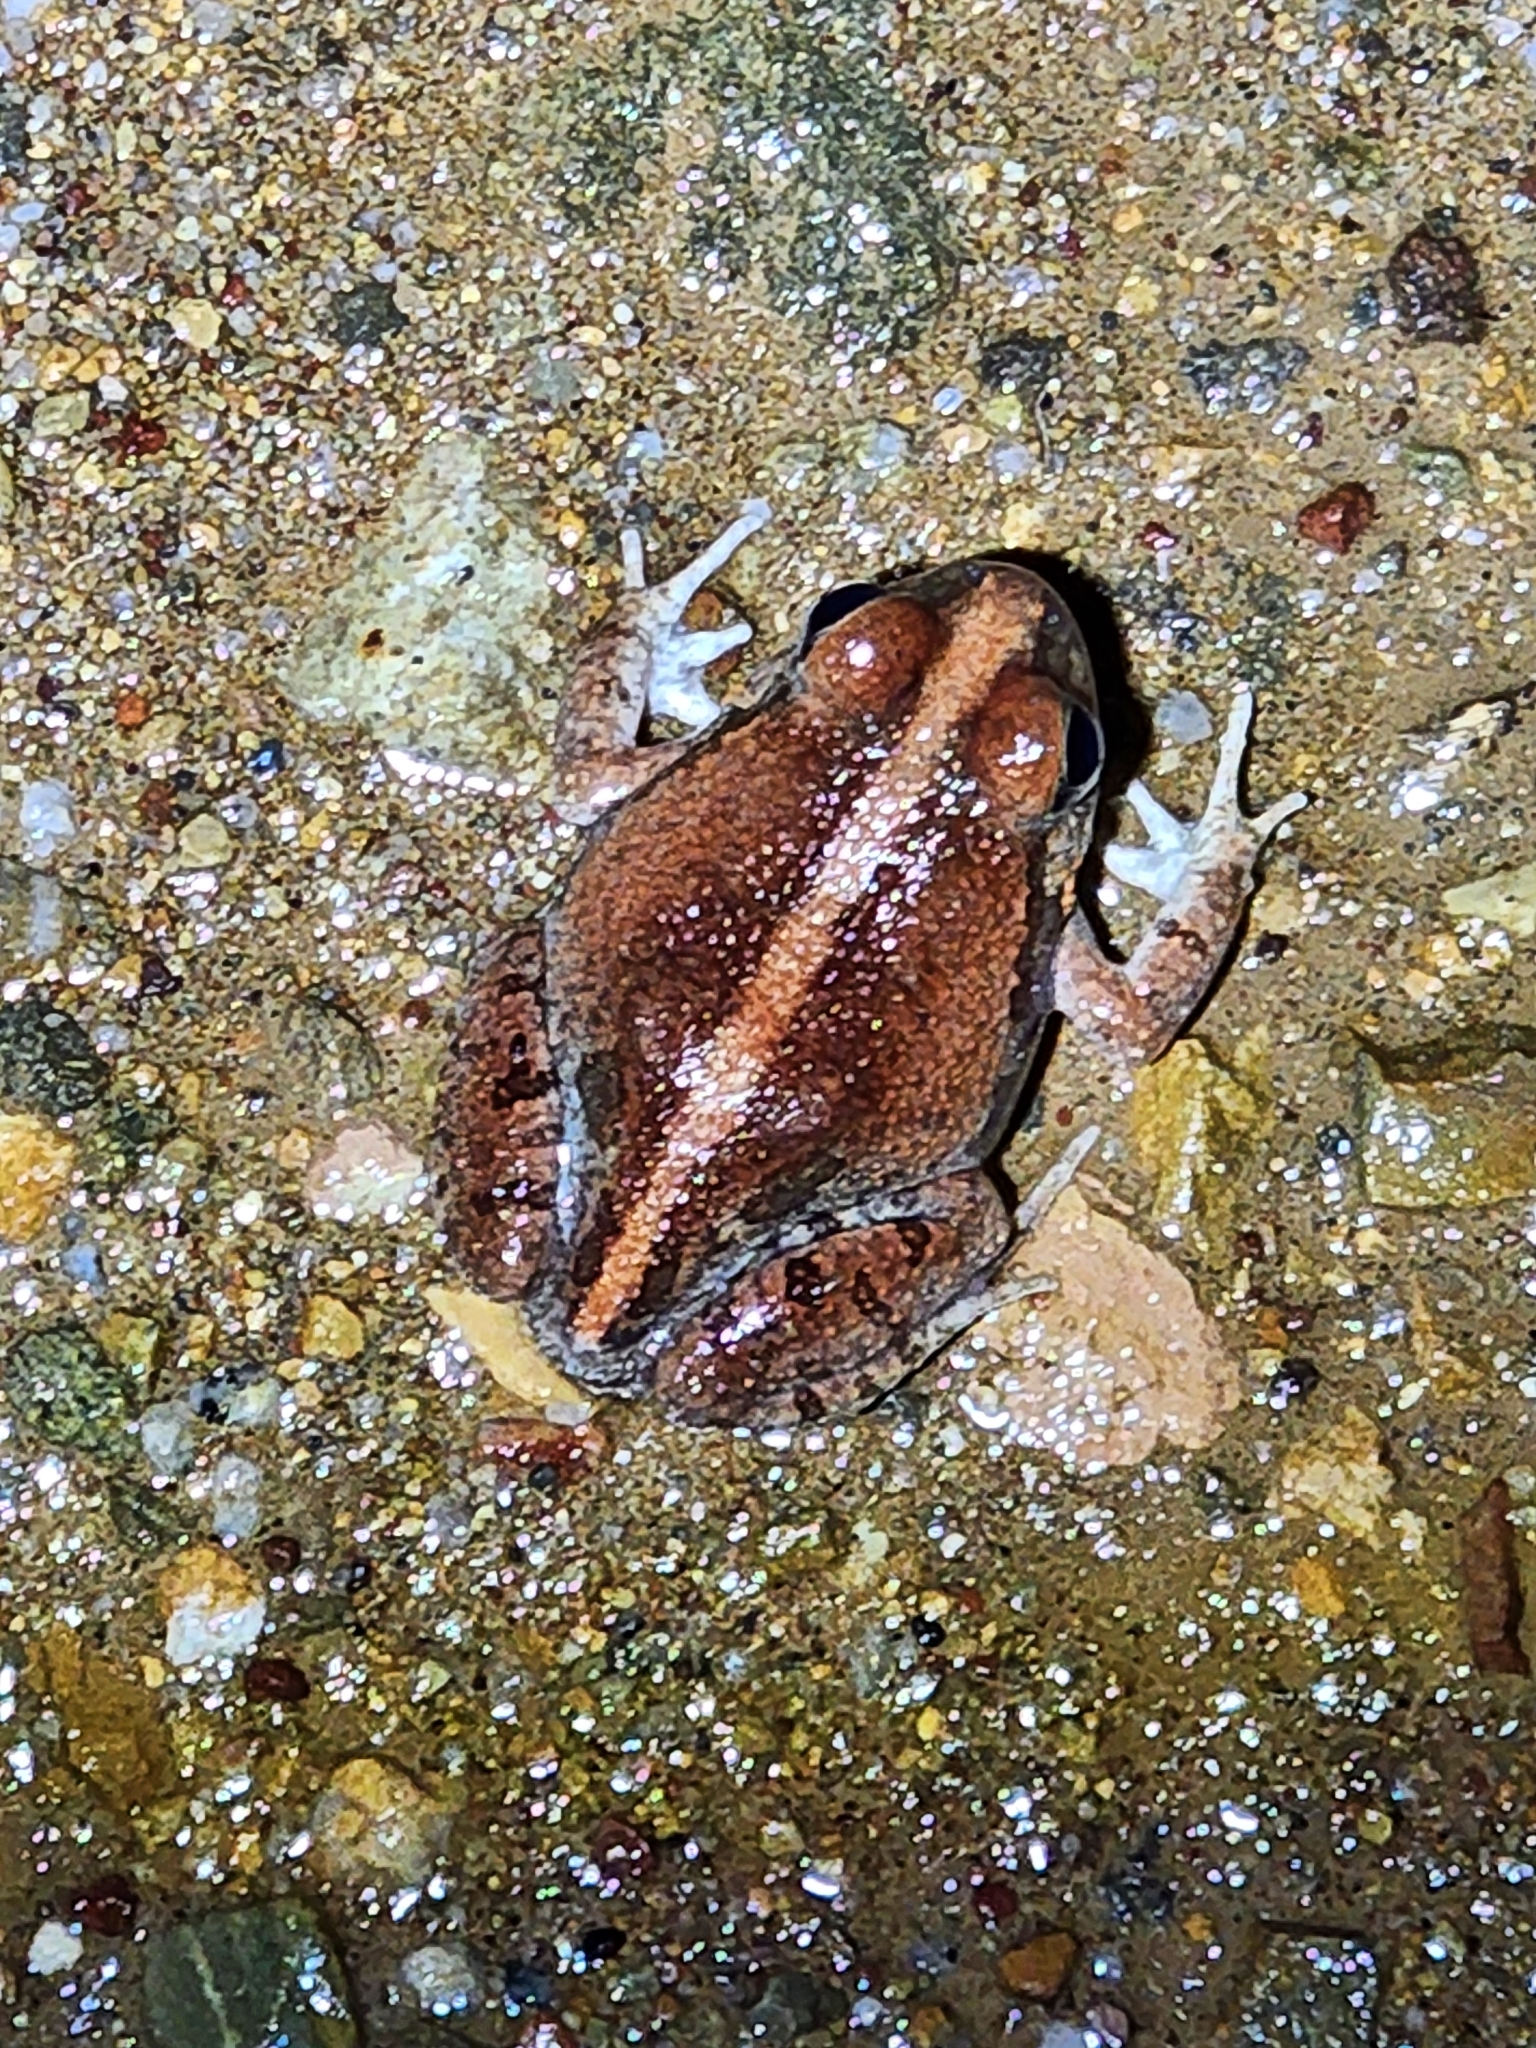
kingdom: Animalia
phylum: Chordata
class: Amphibia
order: Anura
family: Limnodynastidae
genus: Platyplectrum
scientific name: Platyplectrum ornatum
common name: Ornate burrowing frog
